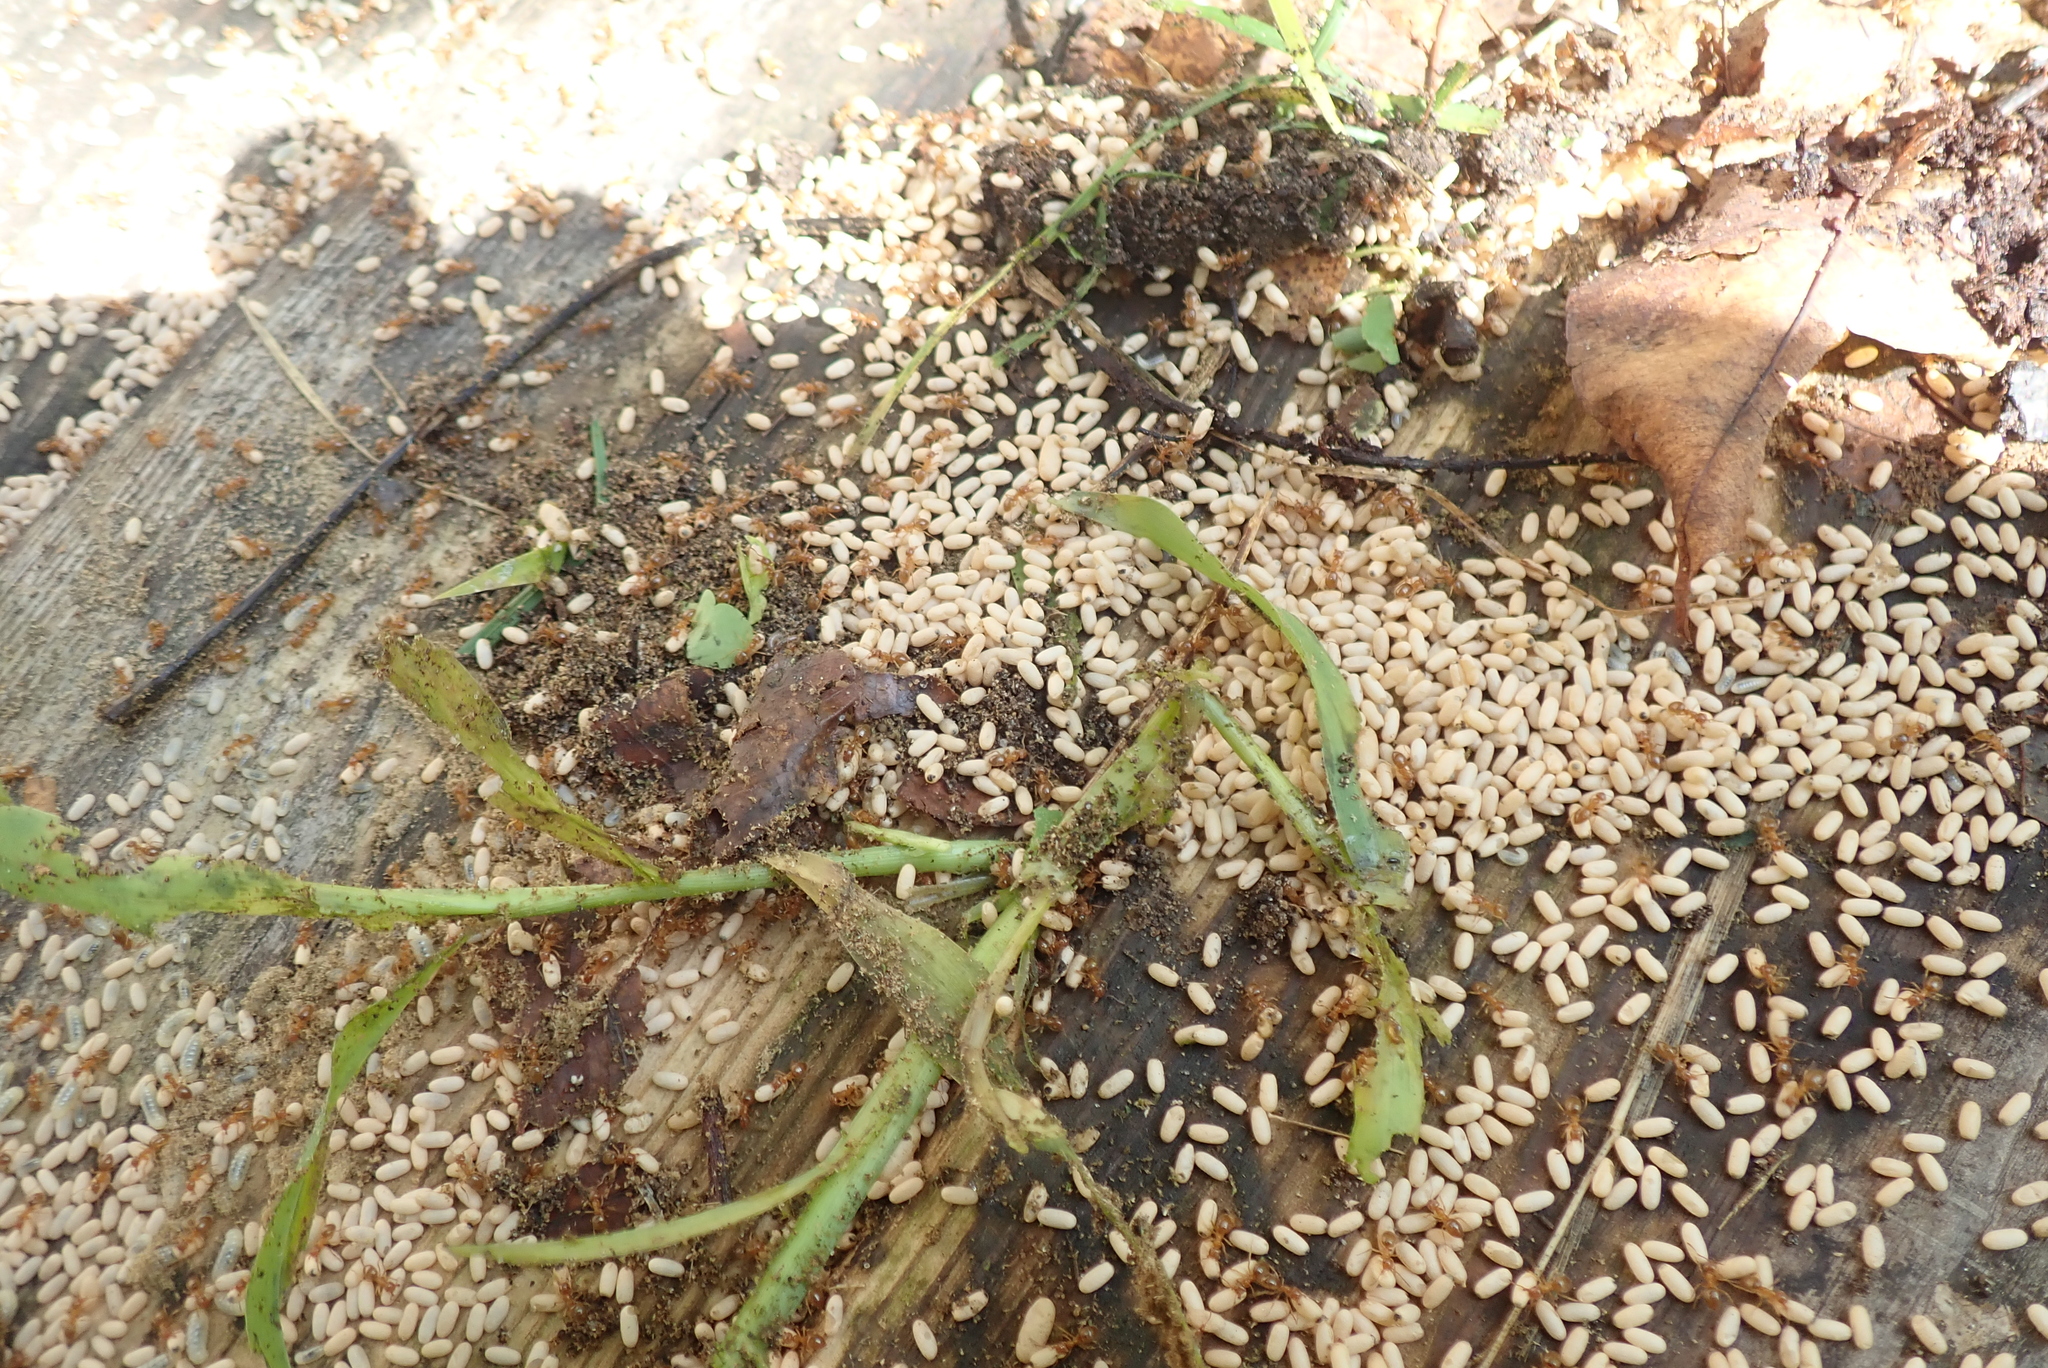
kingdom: Animalia
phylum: Arthropoda
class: Insecta
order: Hymenoptera
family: Formicidae
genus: Lasius
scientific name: Lasius aphidicola
